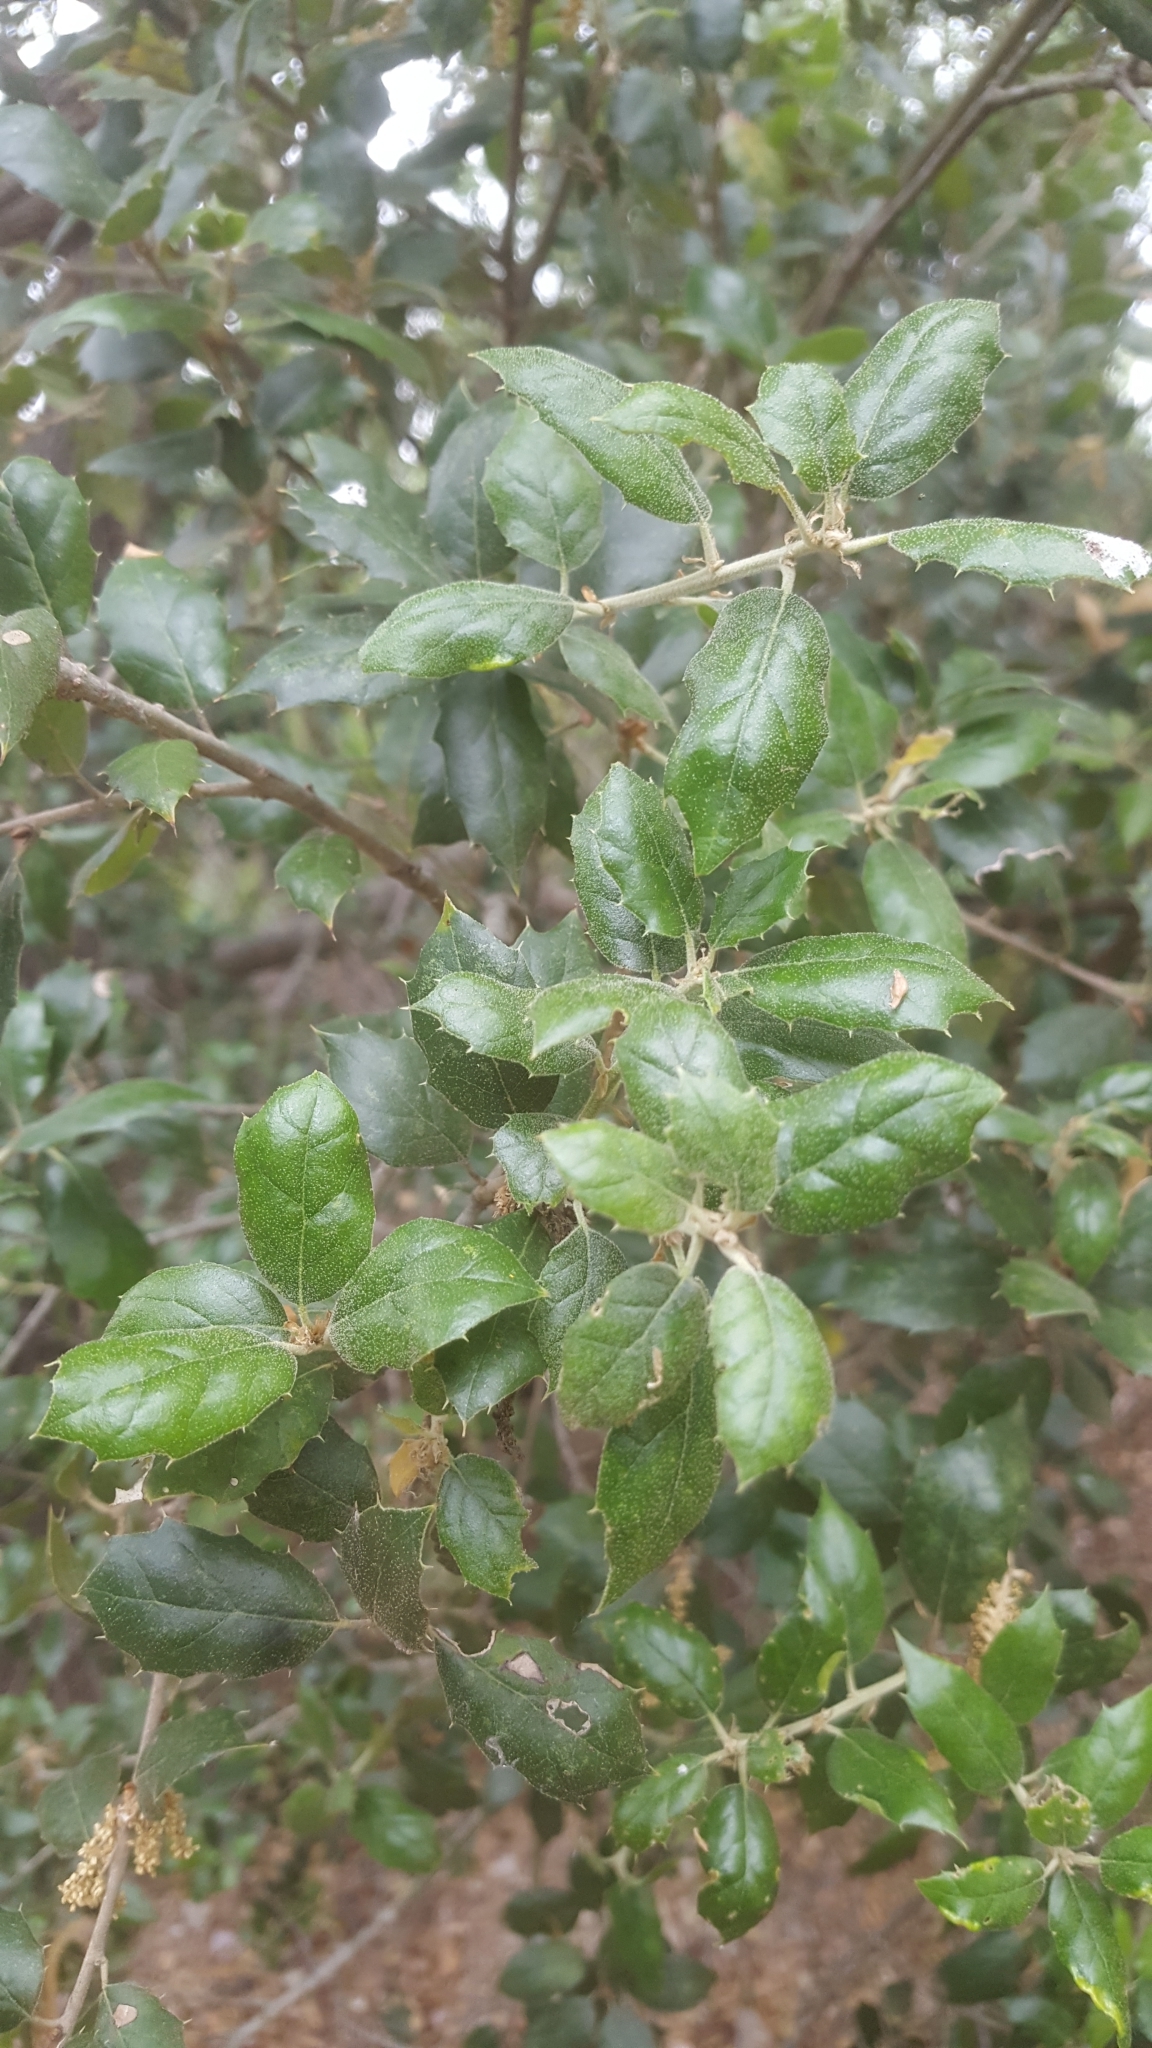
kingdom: Plantae
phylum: Tracheophyta
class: Magnoliopsida
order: Fagales
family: Fagaceae
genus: Quercus
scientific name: Quercus agrifolia
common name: California live oak
